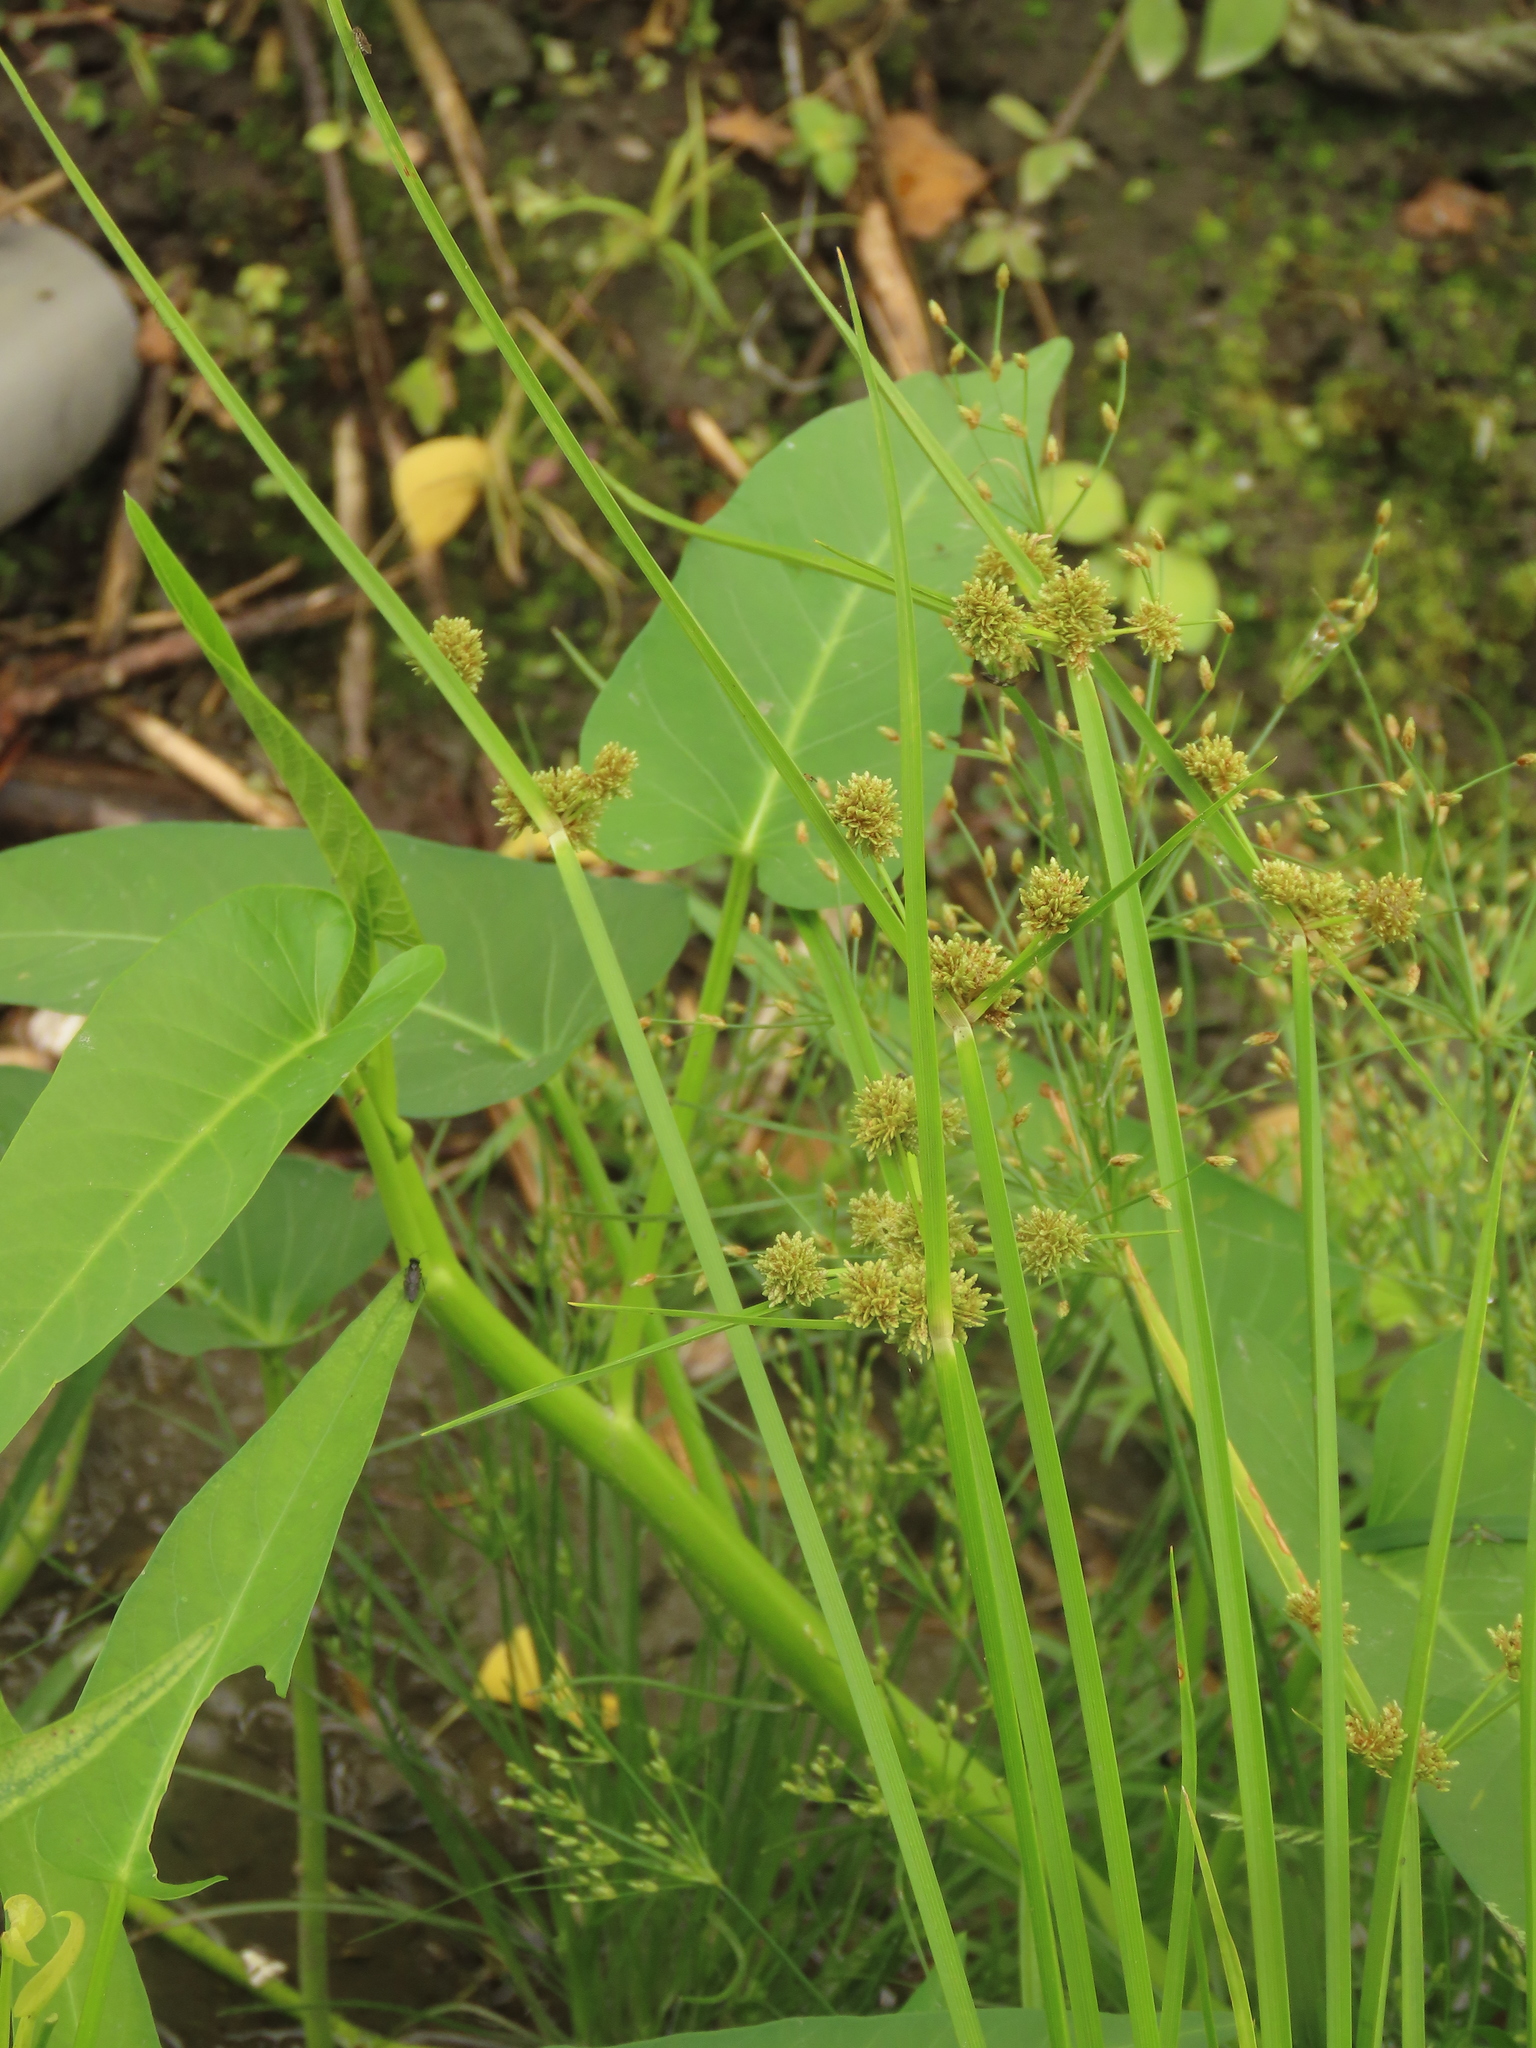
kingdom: Plantae
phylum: Tracheophyta
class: Liliopsida
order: Poales
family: Cyperaceae
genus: Cyperus
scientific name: Cyperus difformis
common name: Variable flatsedge
